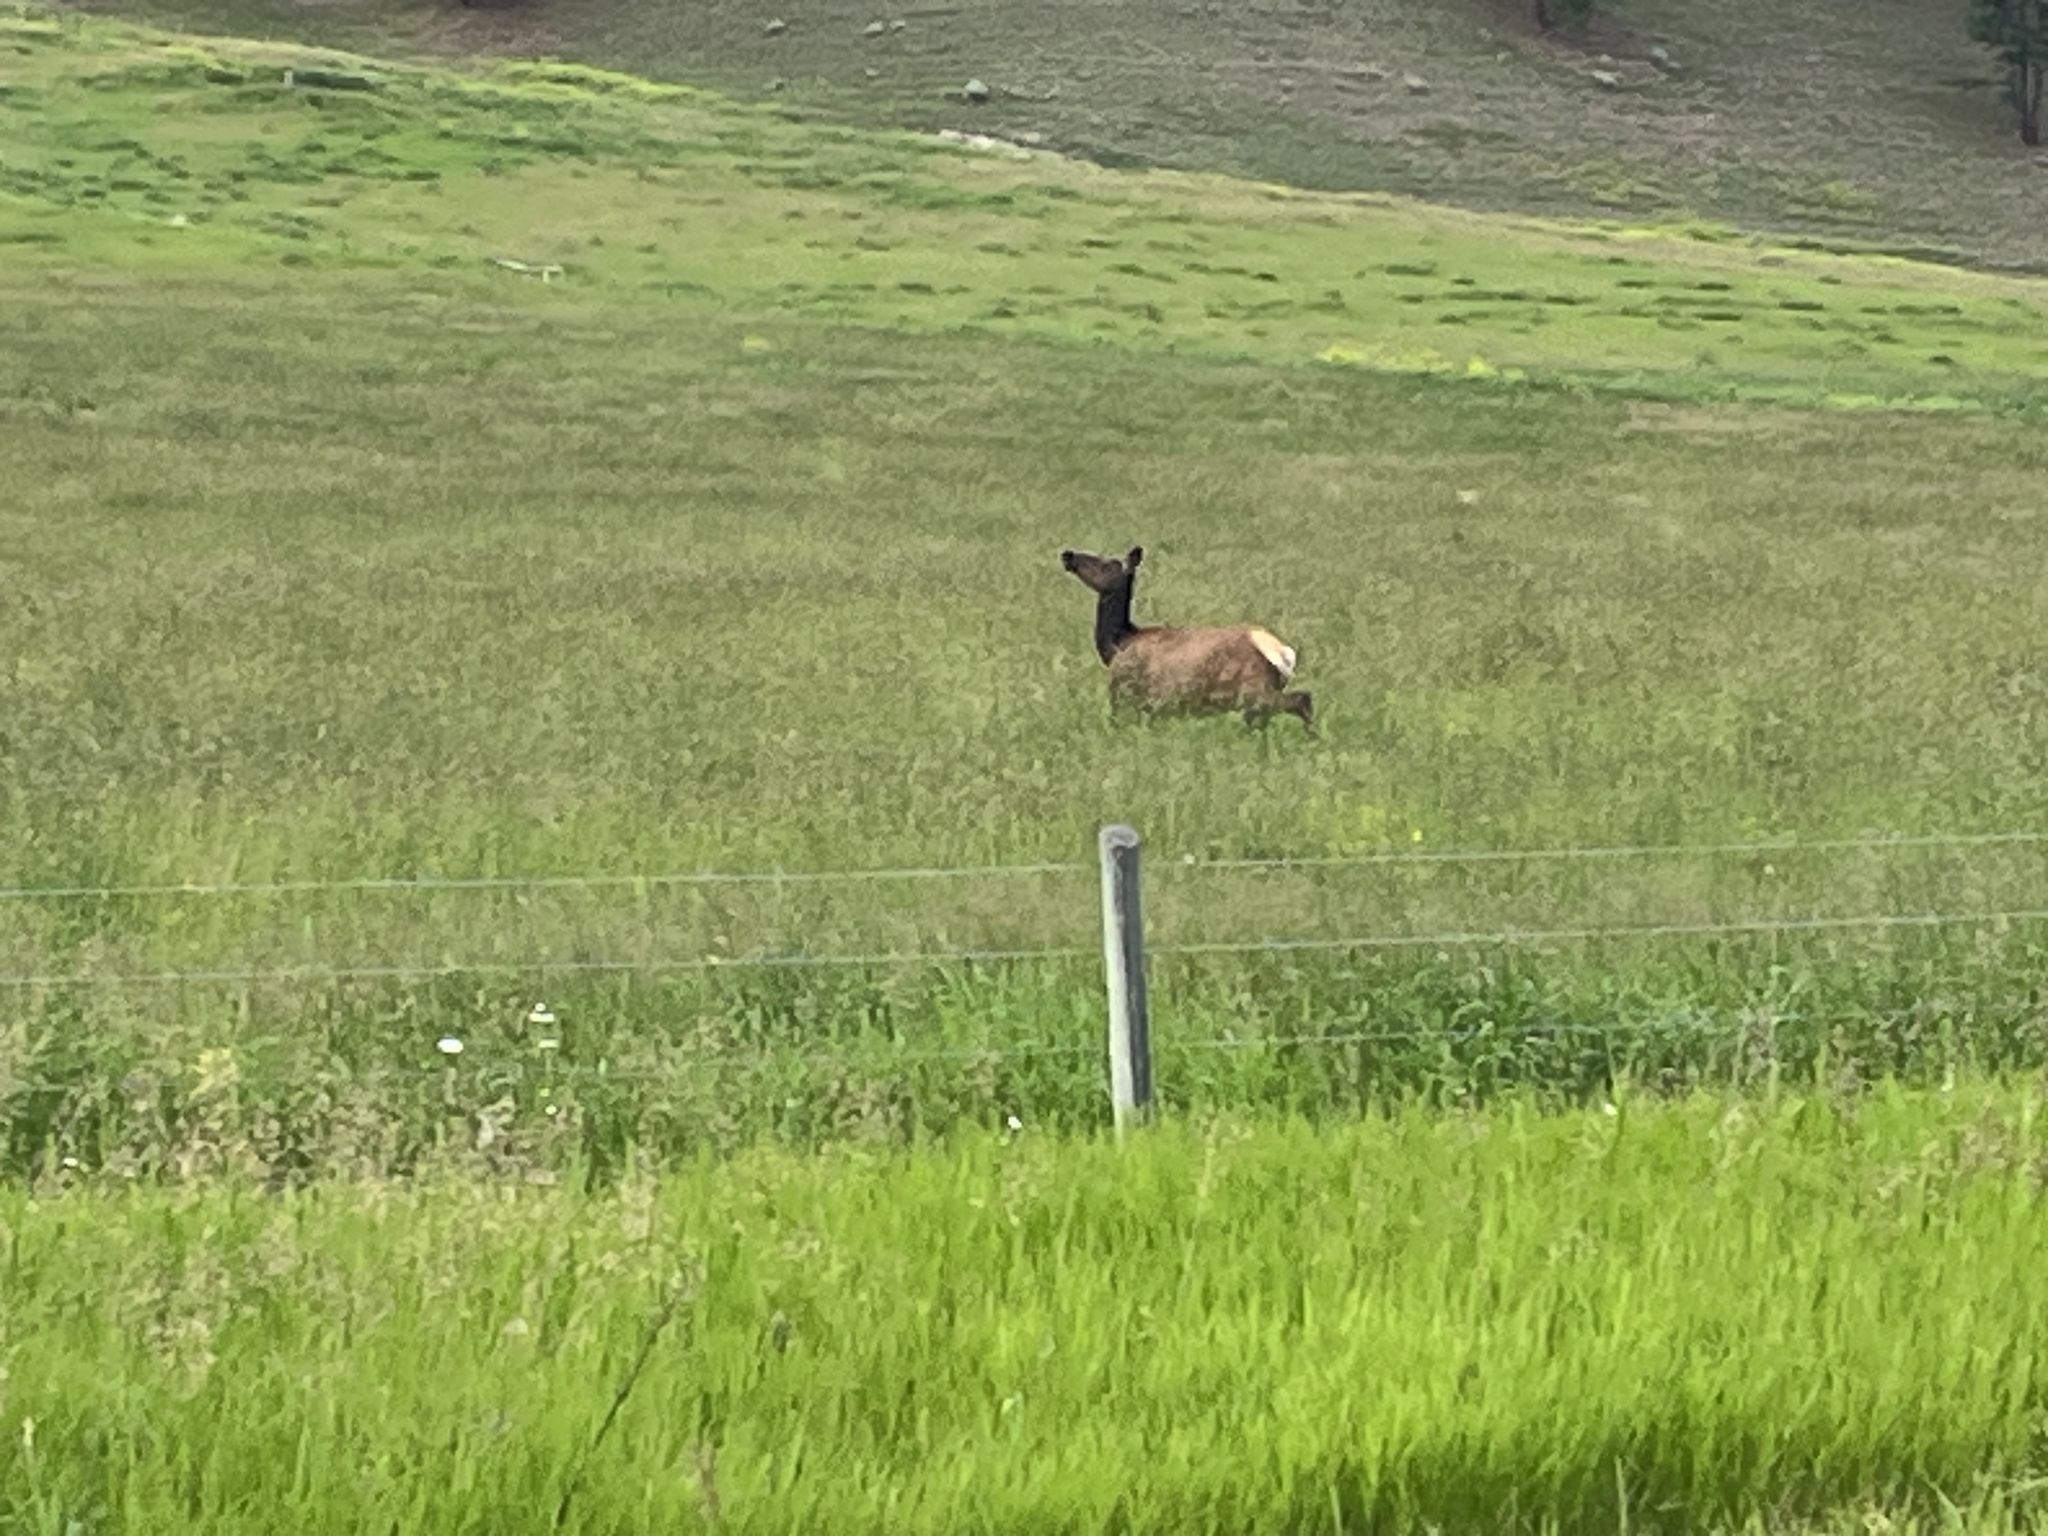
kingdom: Animalia
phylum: Chordata
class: Mammalia
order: Artiodactyla
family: Cervidae
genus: Cervus
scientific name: Cervus elaphus
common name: Red deer
